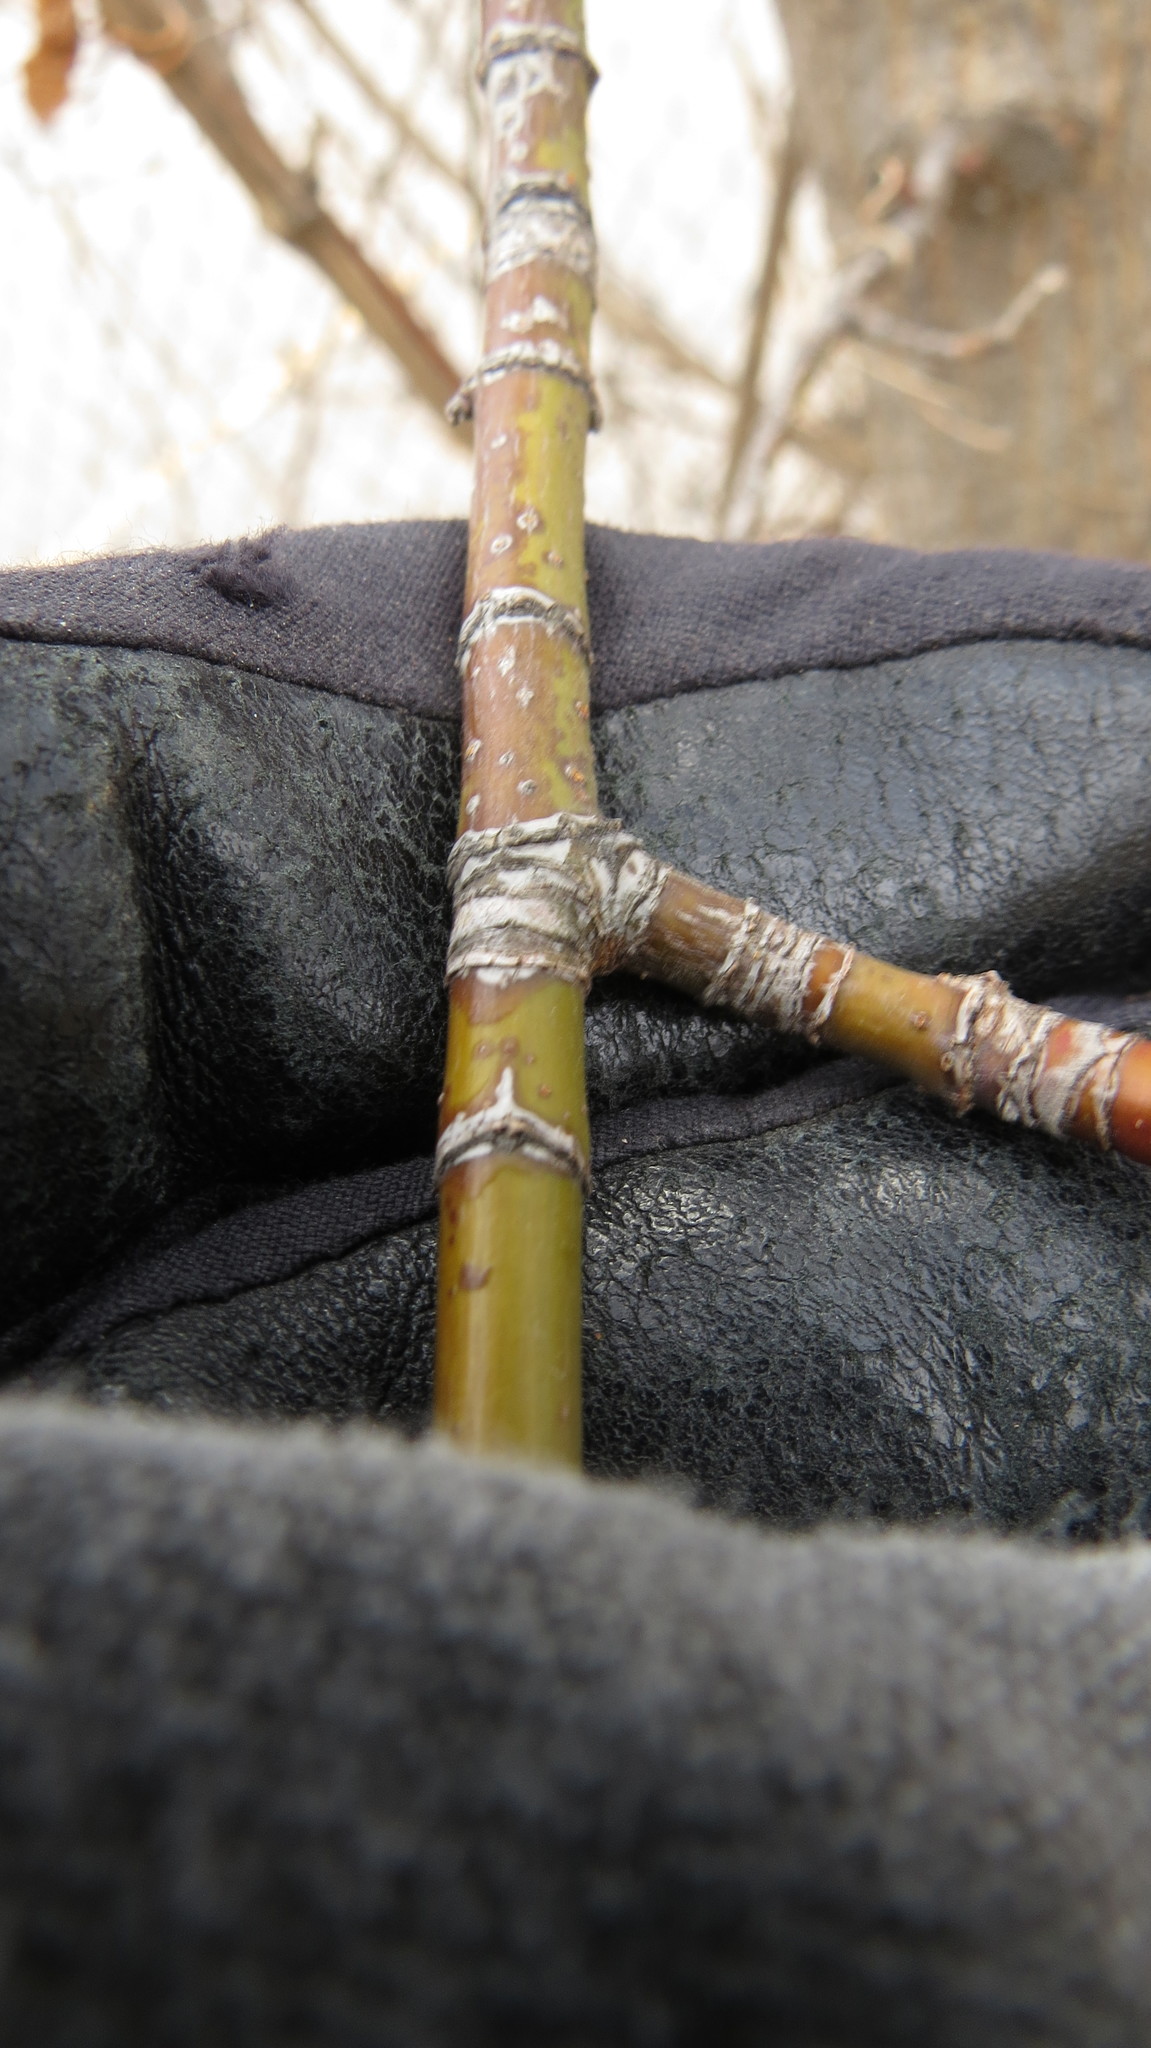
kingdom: Plantae
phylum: Tracheophyta
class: Magnoliopsida
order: Sapindales
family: Sapindaceae
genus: Acer
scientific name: Acer negundo
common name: Ashleaf maple
